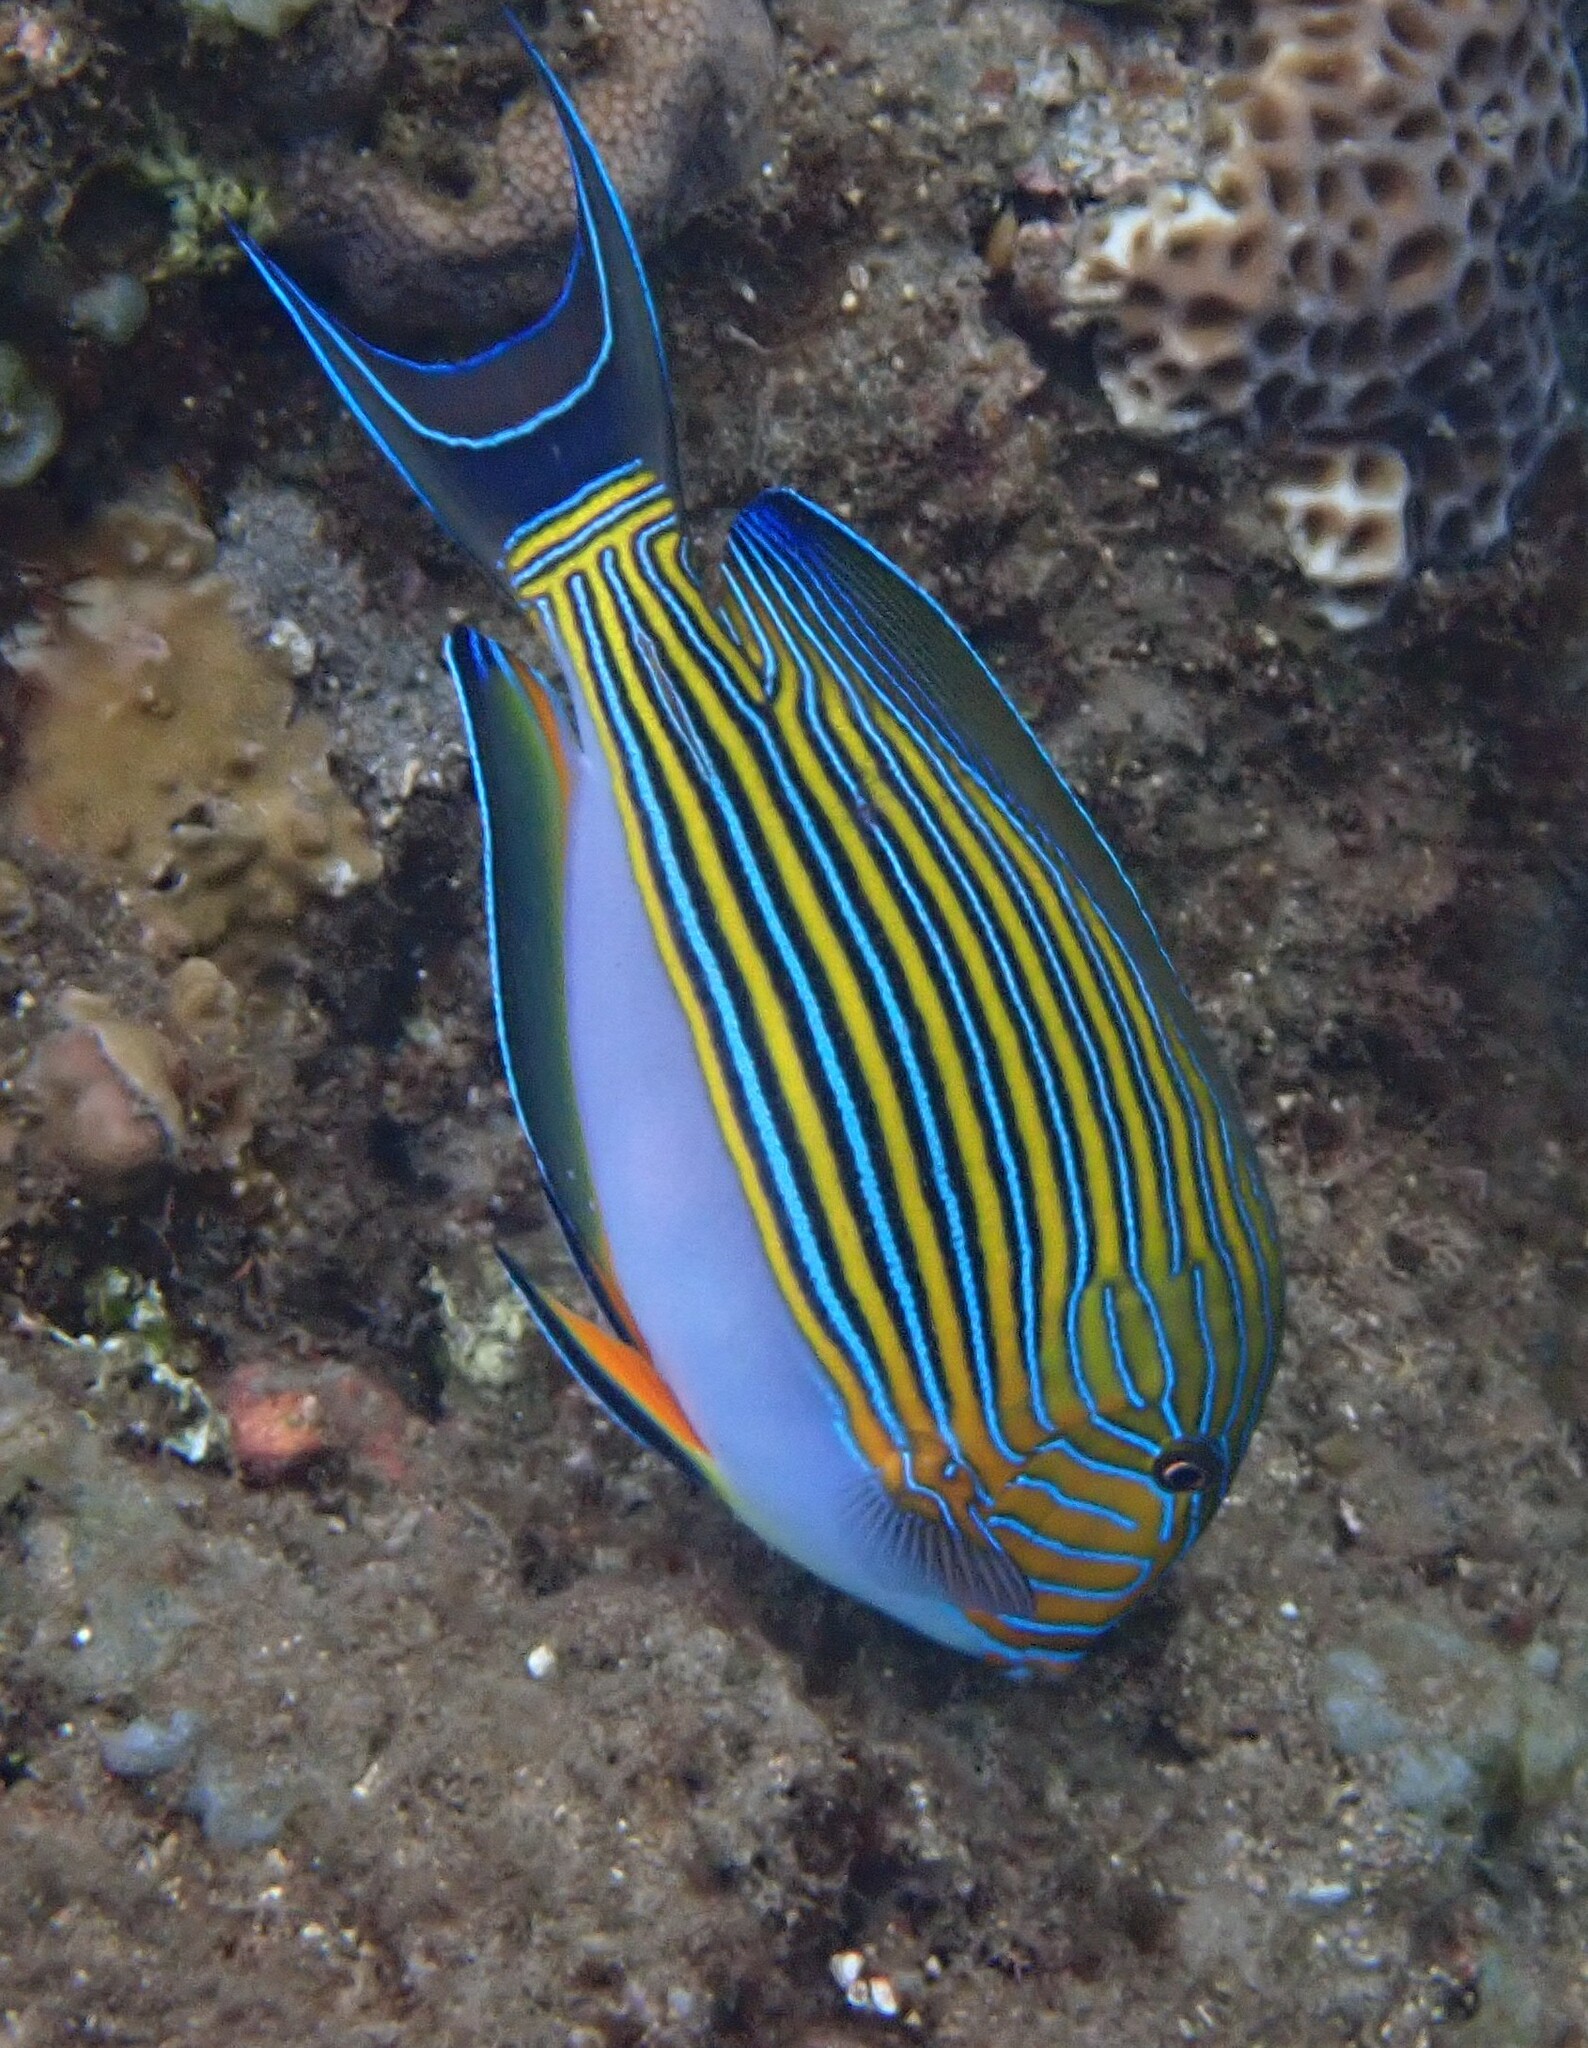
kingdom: Animalia
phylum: Chordata
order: Perciformes
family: Acanthuridae
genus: Acanthurus
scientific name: Acanthurus lineatus
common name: Striped surgeonfish
